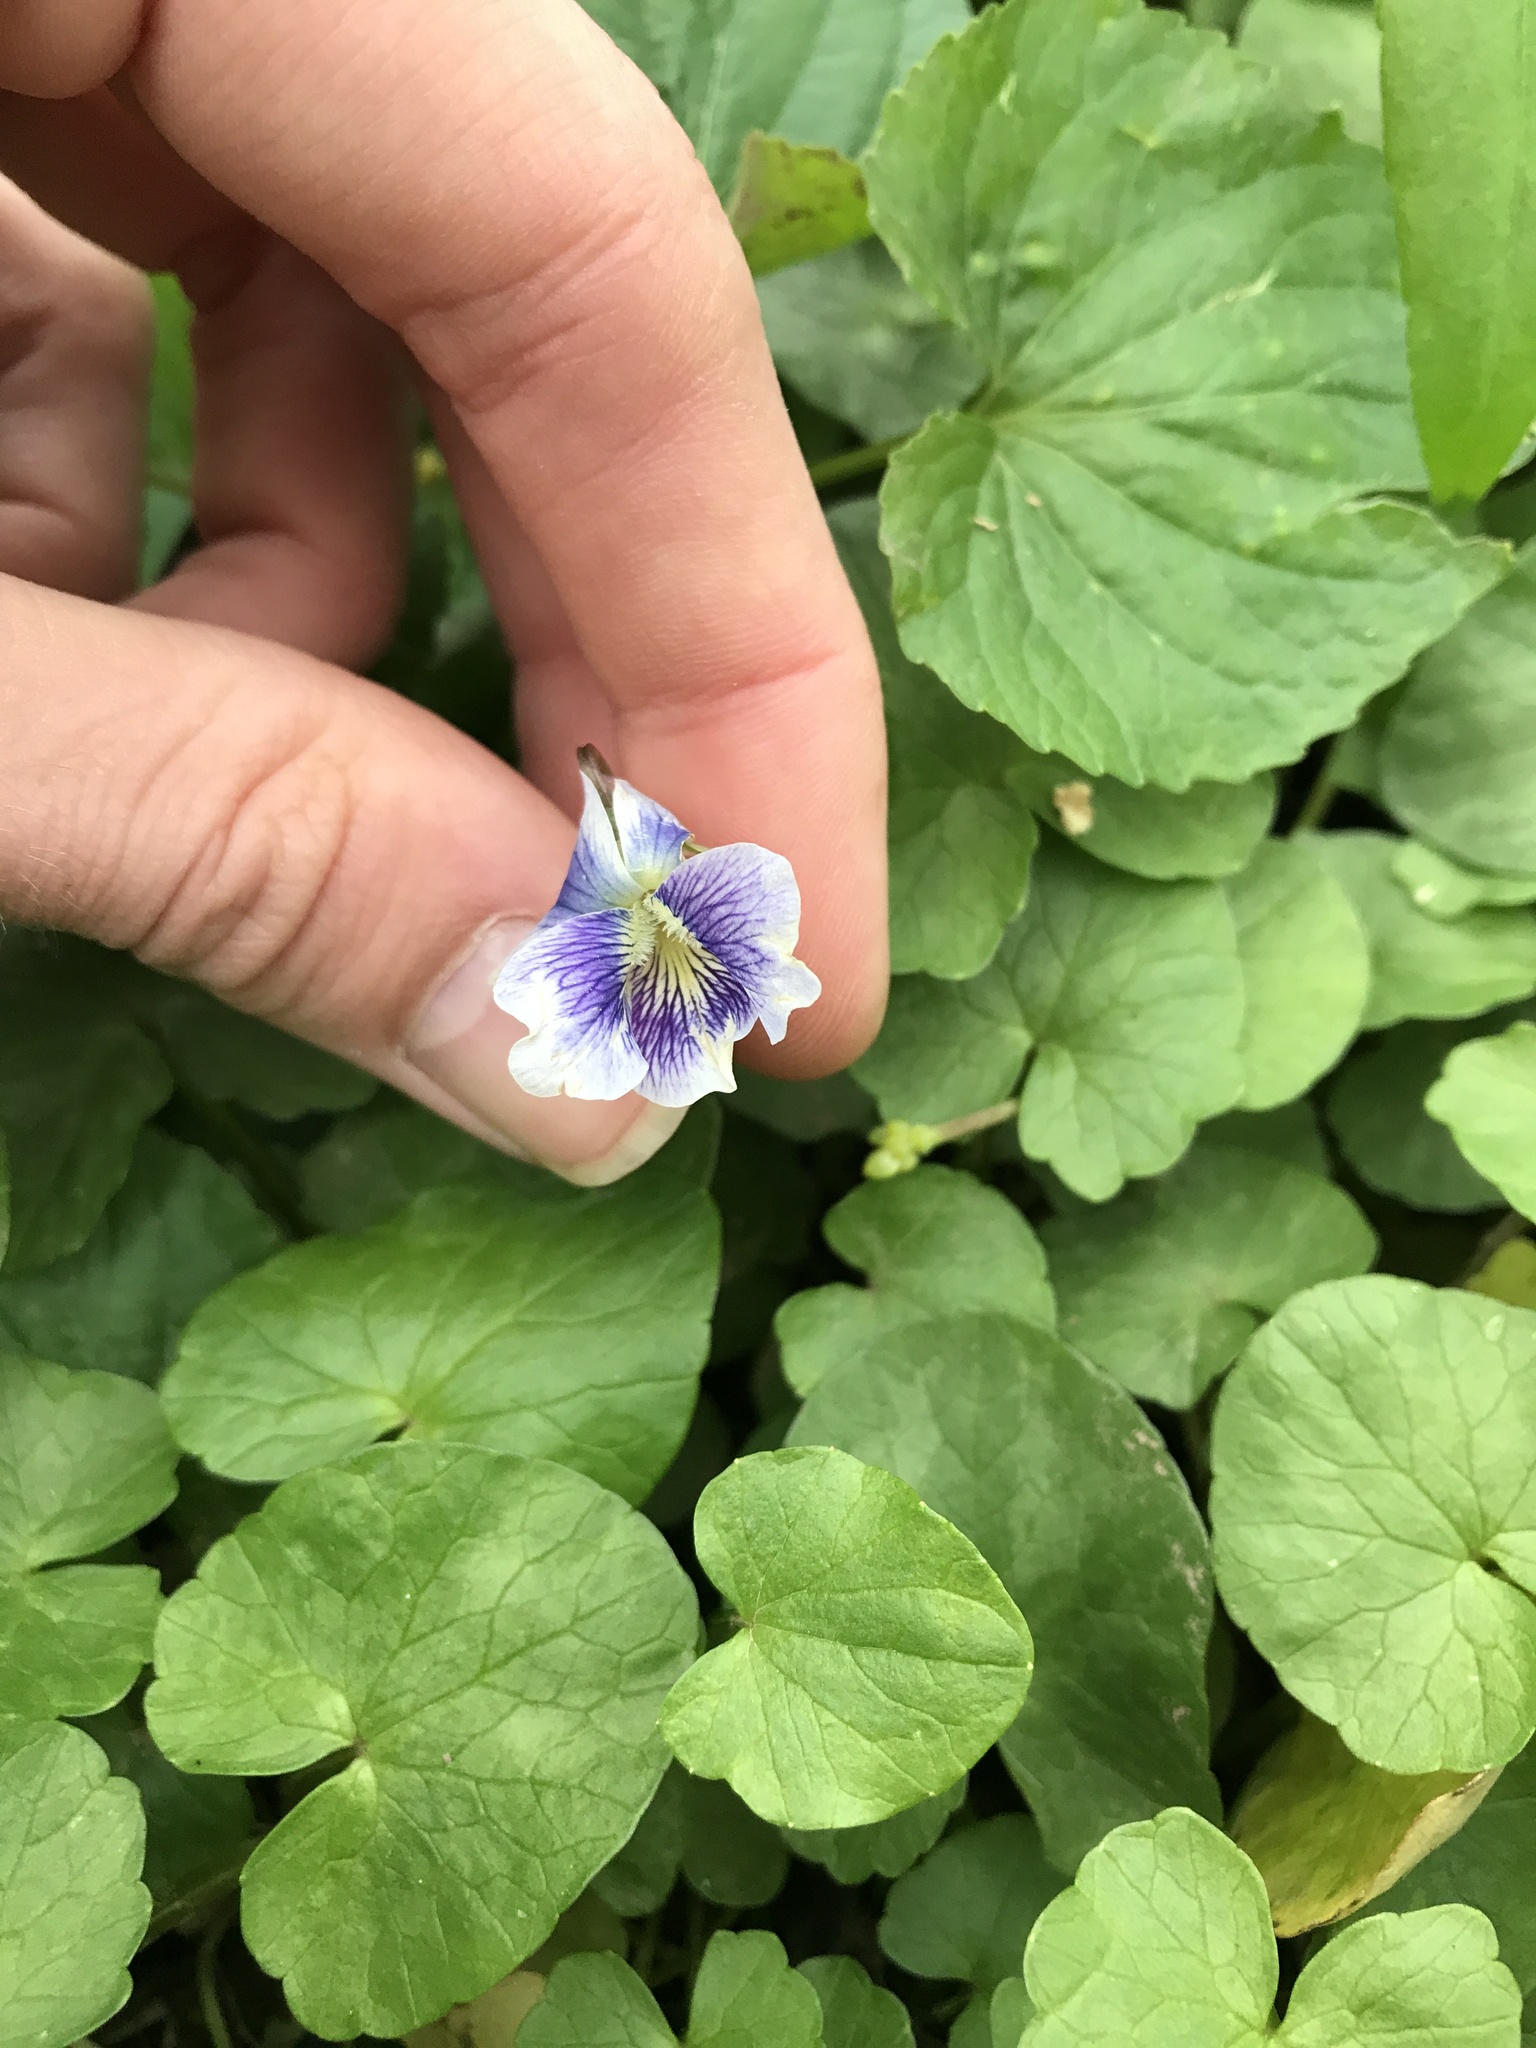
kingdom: Plantae
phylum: Tracheophyta
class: Magnoliopsida
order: Malpighiales
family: Violaceae
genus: Viola
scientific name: Viola sororia
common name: Dooryard violet
